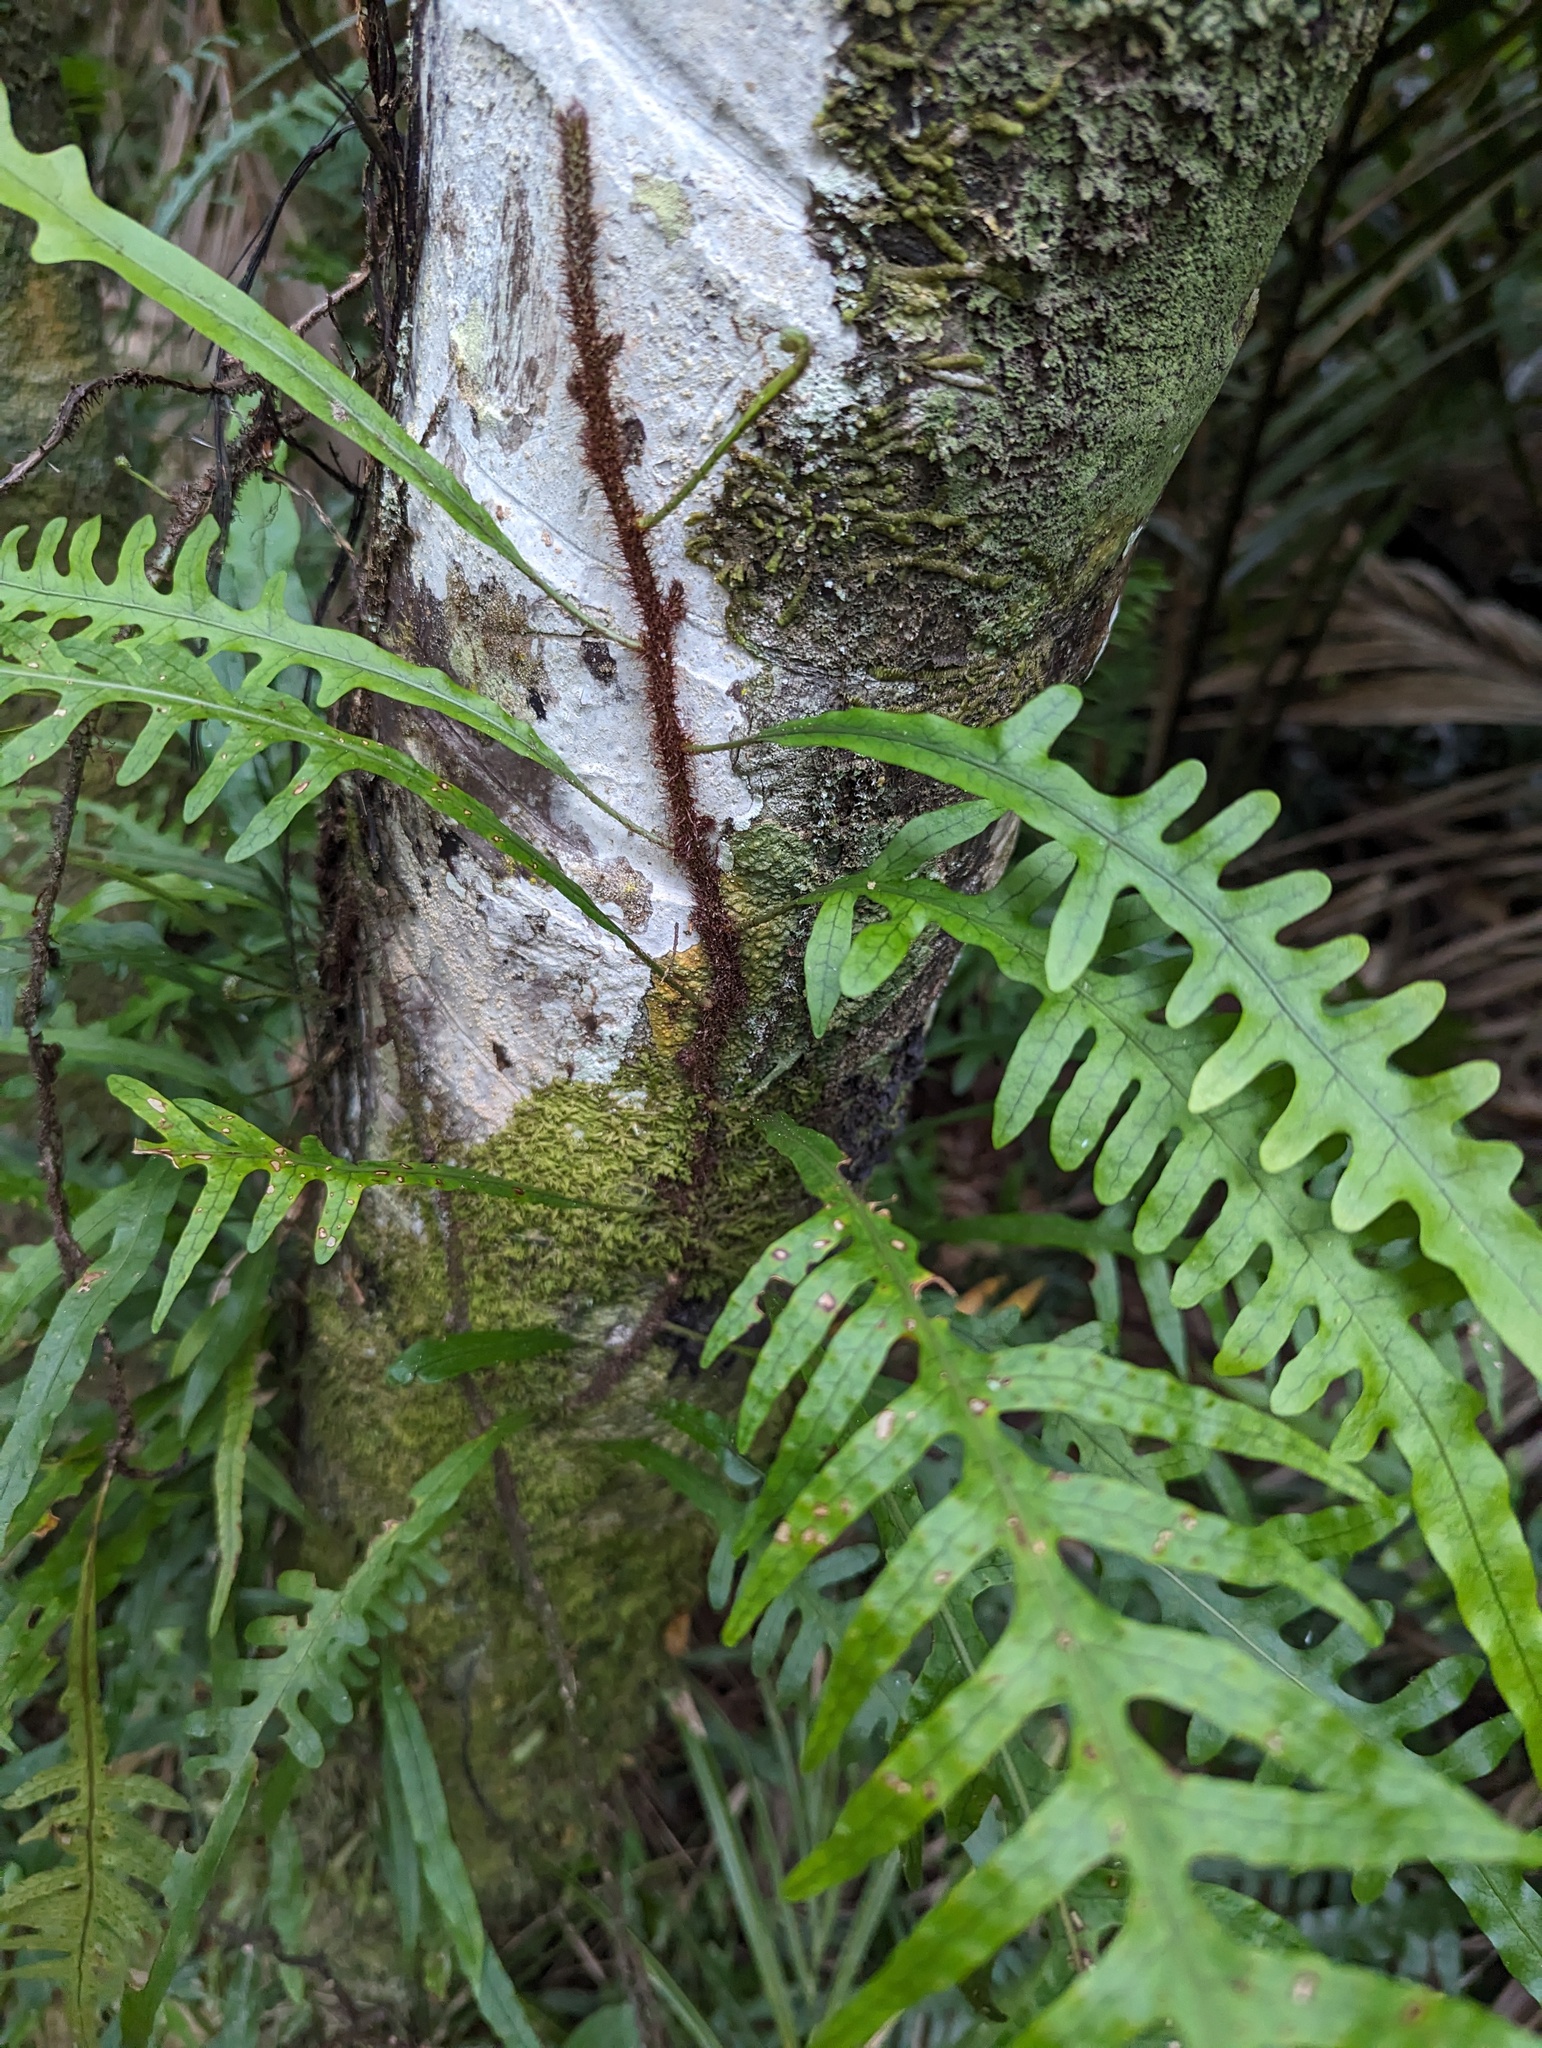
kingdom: Plantae
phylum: Tracheophyta
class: Polypodiopsida
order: Polypodiales
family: Polypodiaceae
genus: Lecanopteris
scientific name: Lecanopteris scandens
